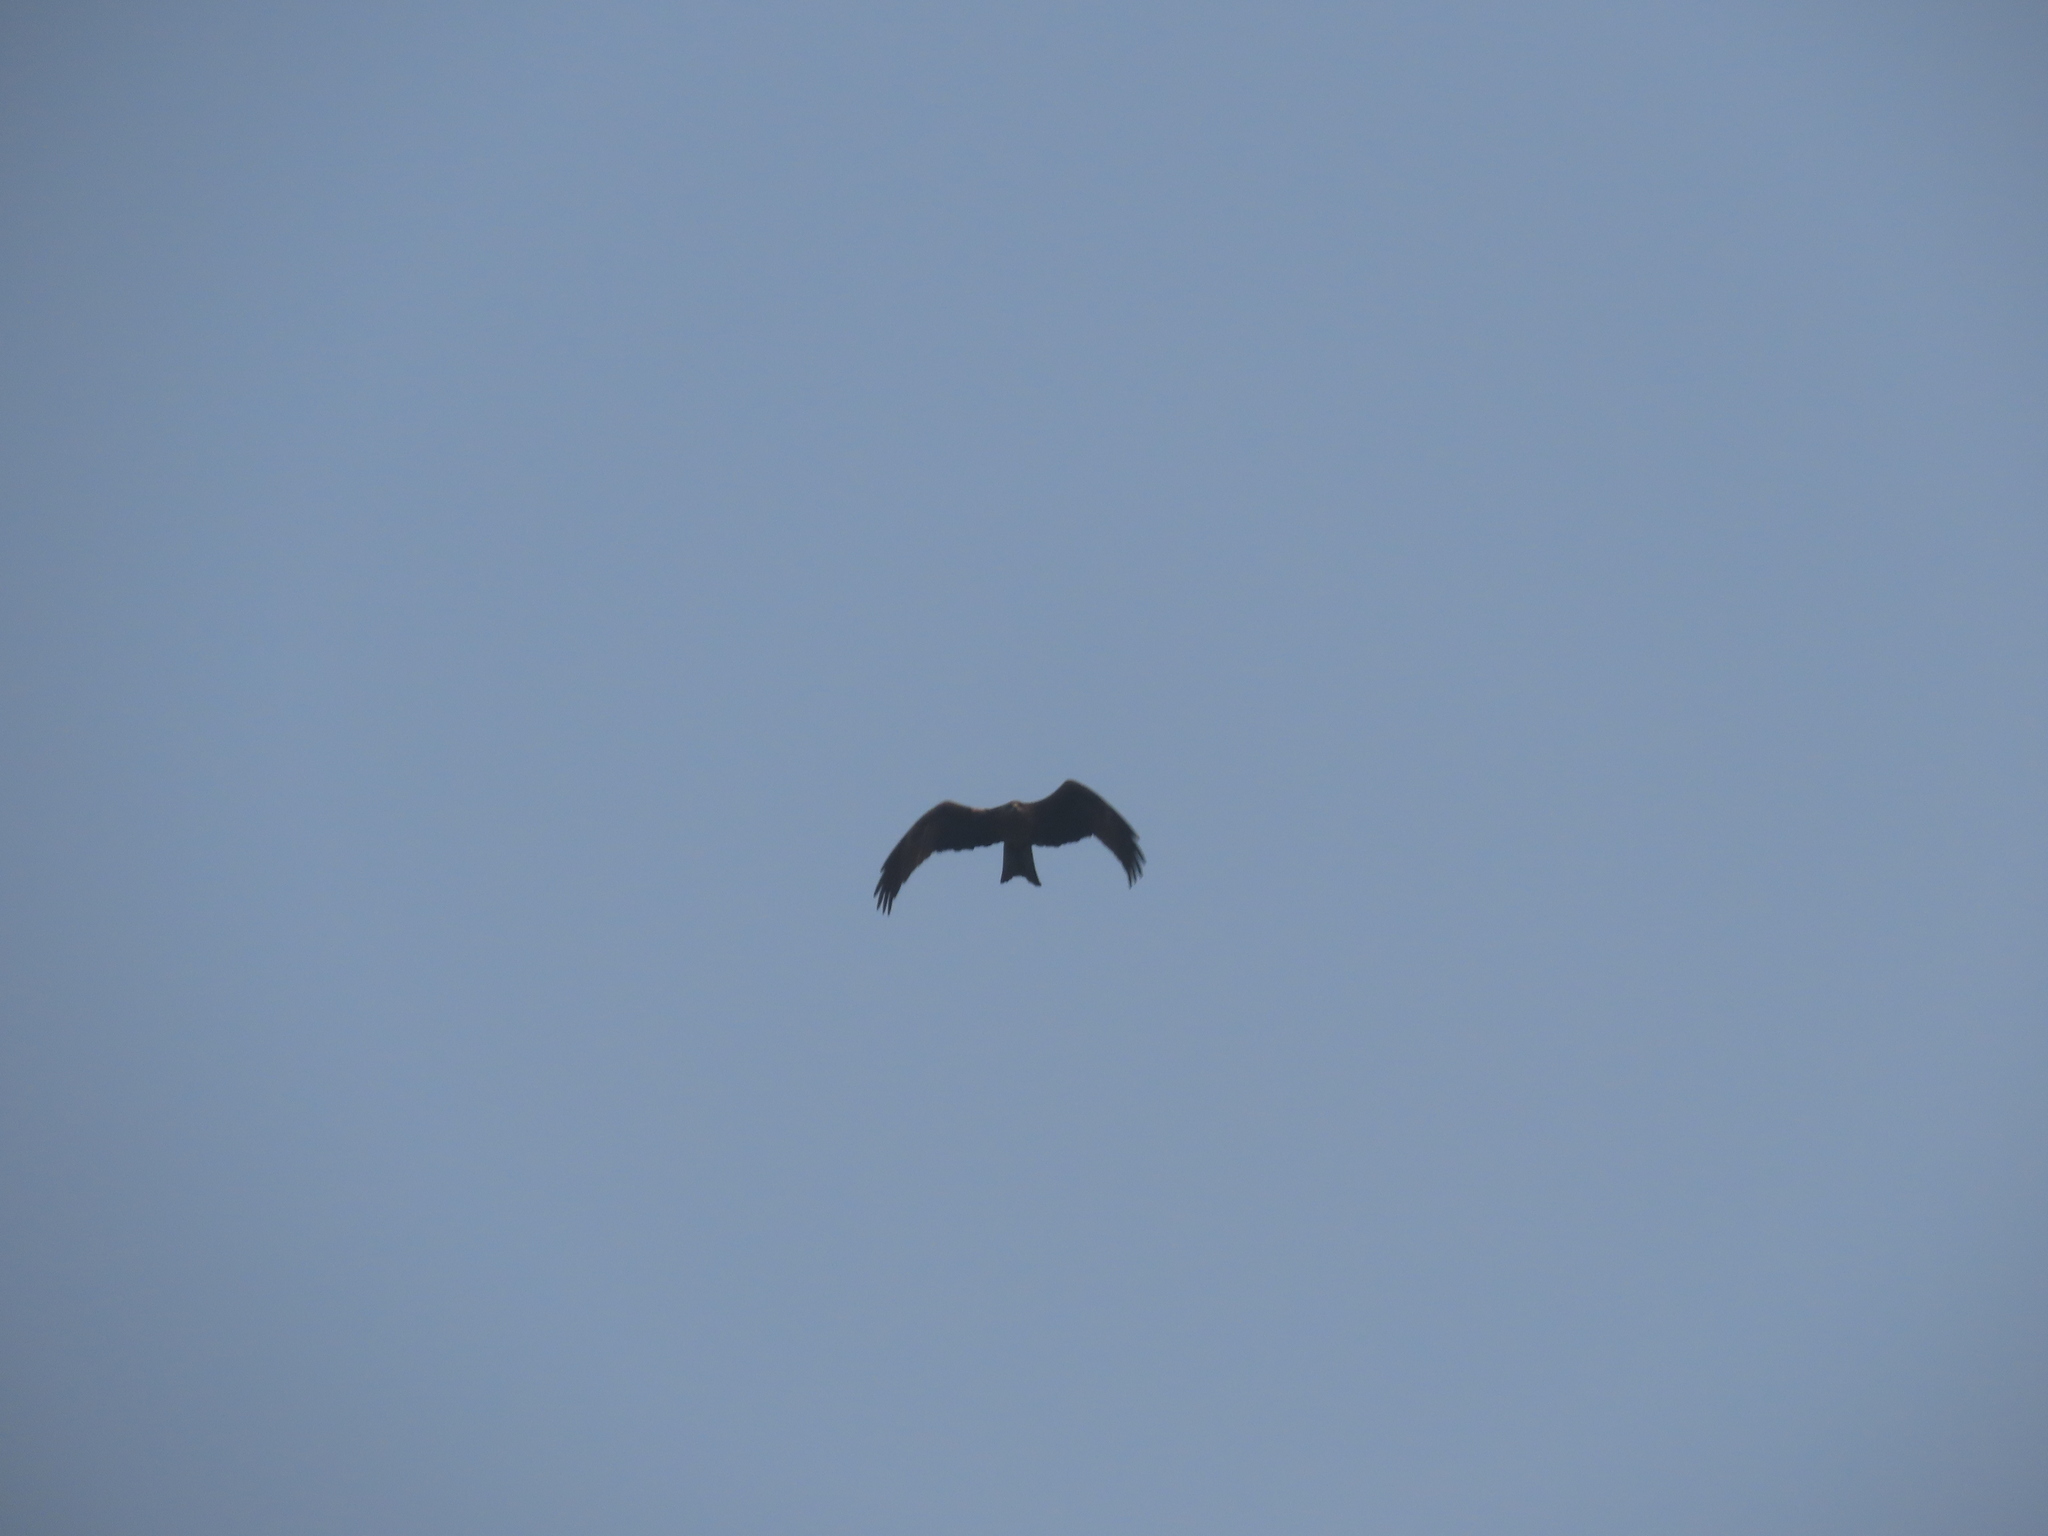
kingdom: Animalia
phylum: Chordata
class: Aves
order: Accipitriformes
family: Accipitridae
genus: Milvus
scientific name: Milvus migrans
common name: Black kite
